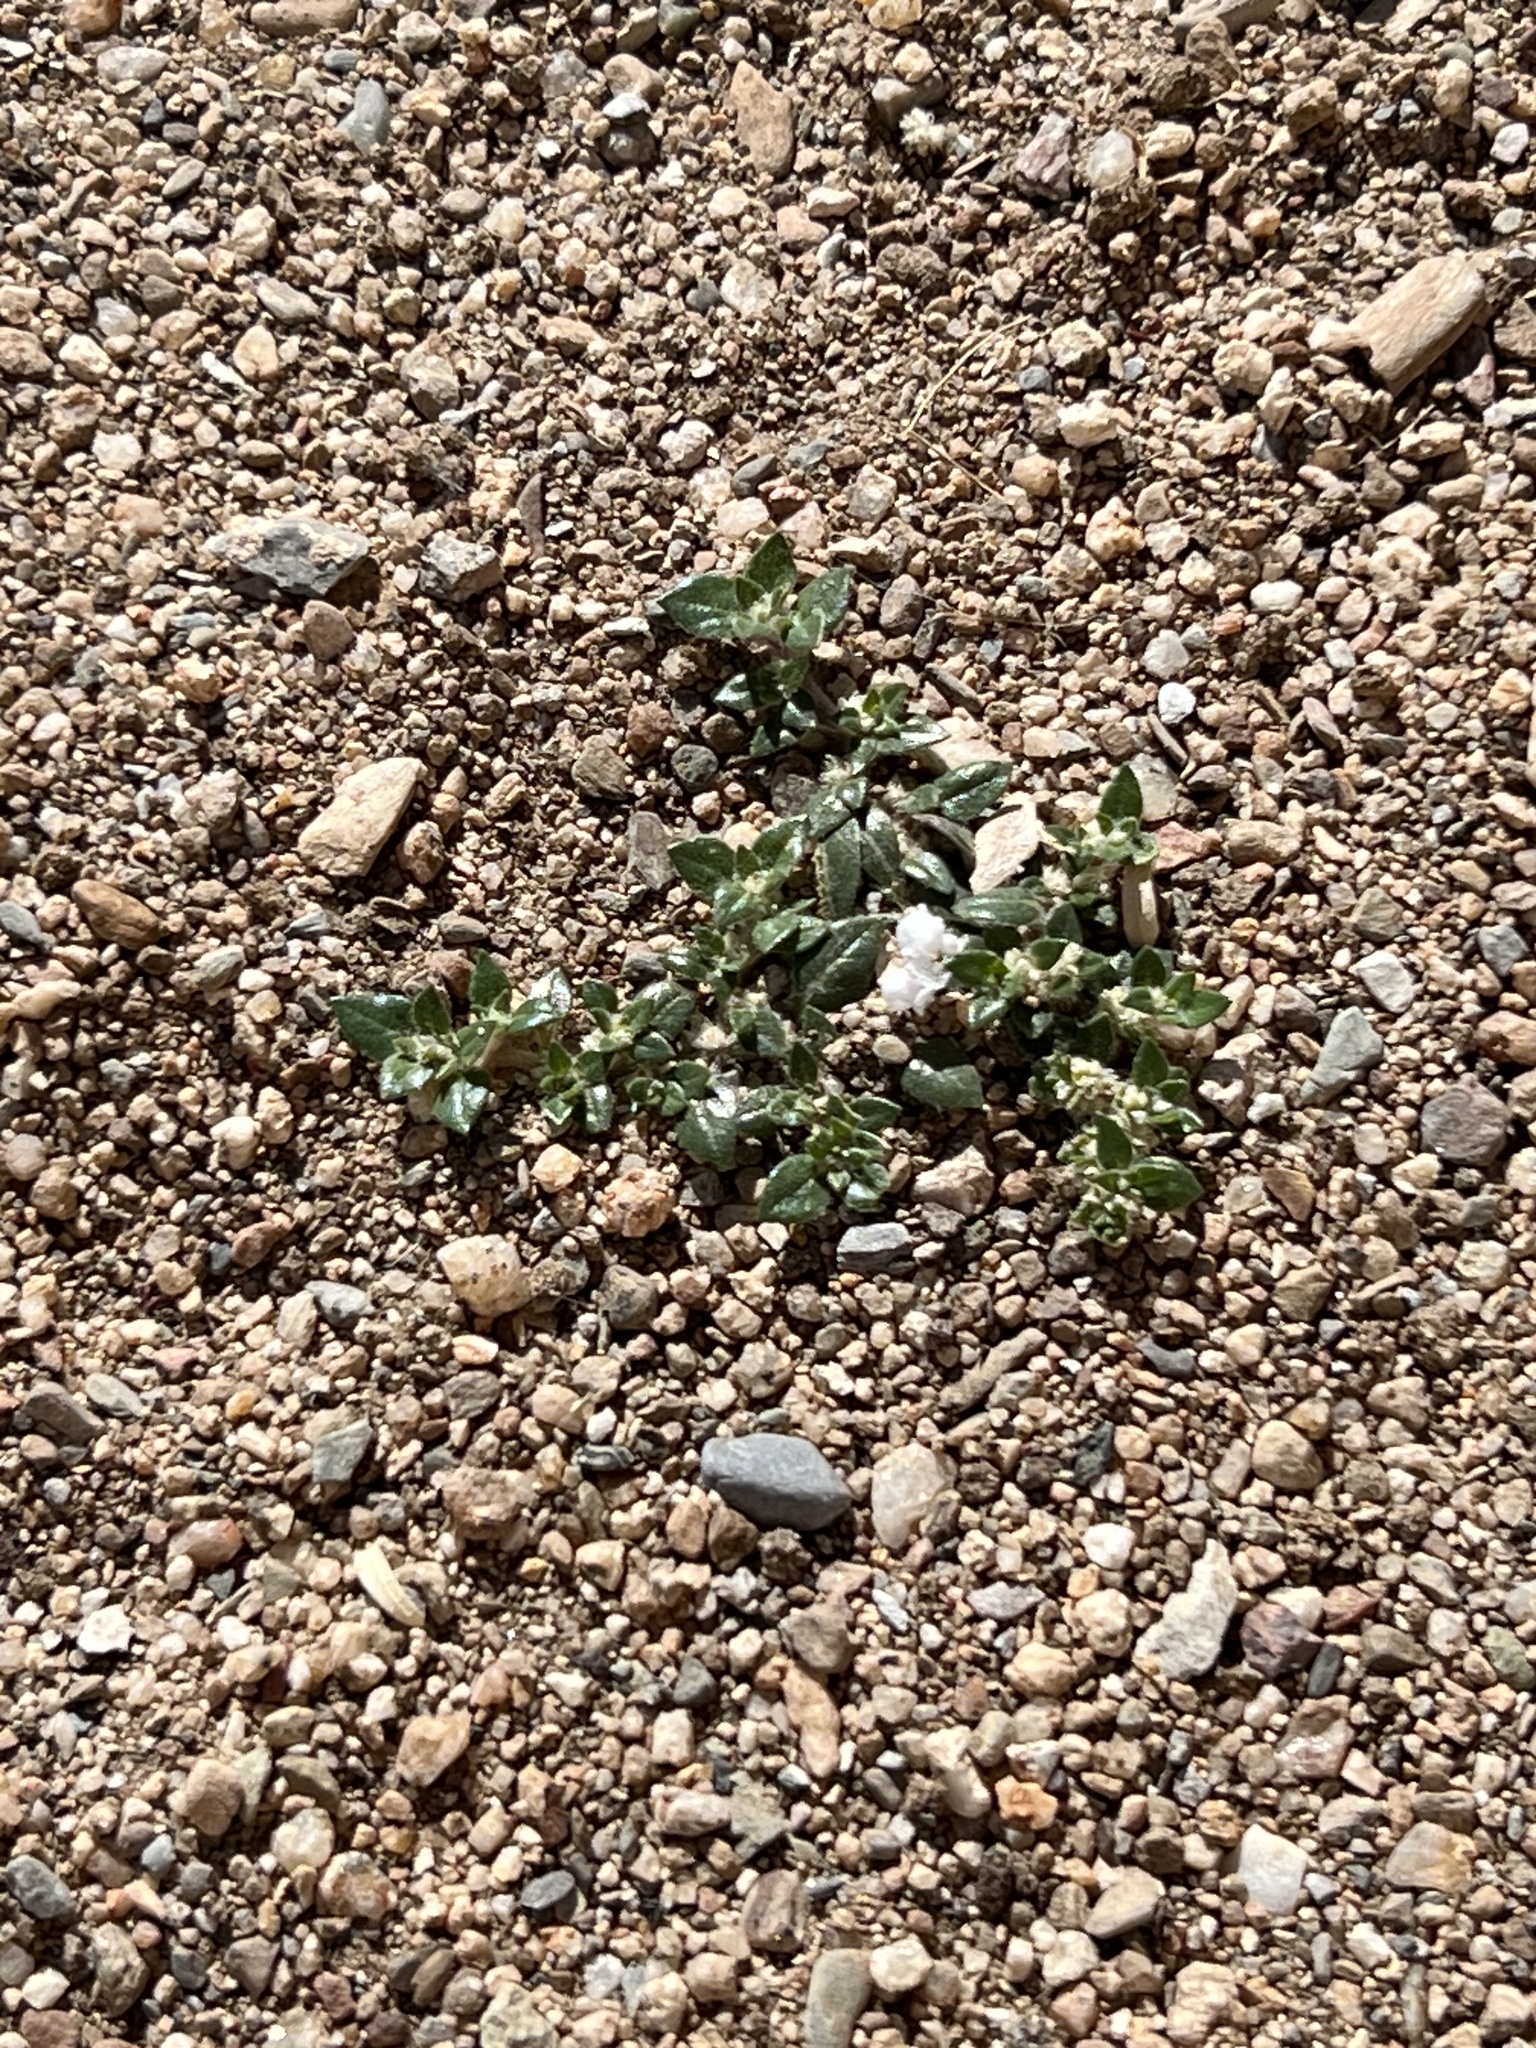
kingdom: Plantae
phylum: Tracheophyta
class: Magnoliopsida
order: Caryophyllales
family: Amaranthaceae
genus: Guilleminea
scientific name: Guilleminea densa
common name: Small matweed
